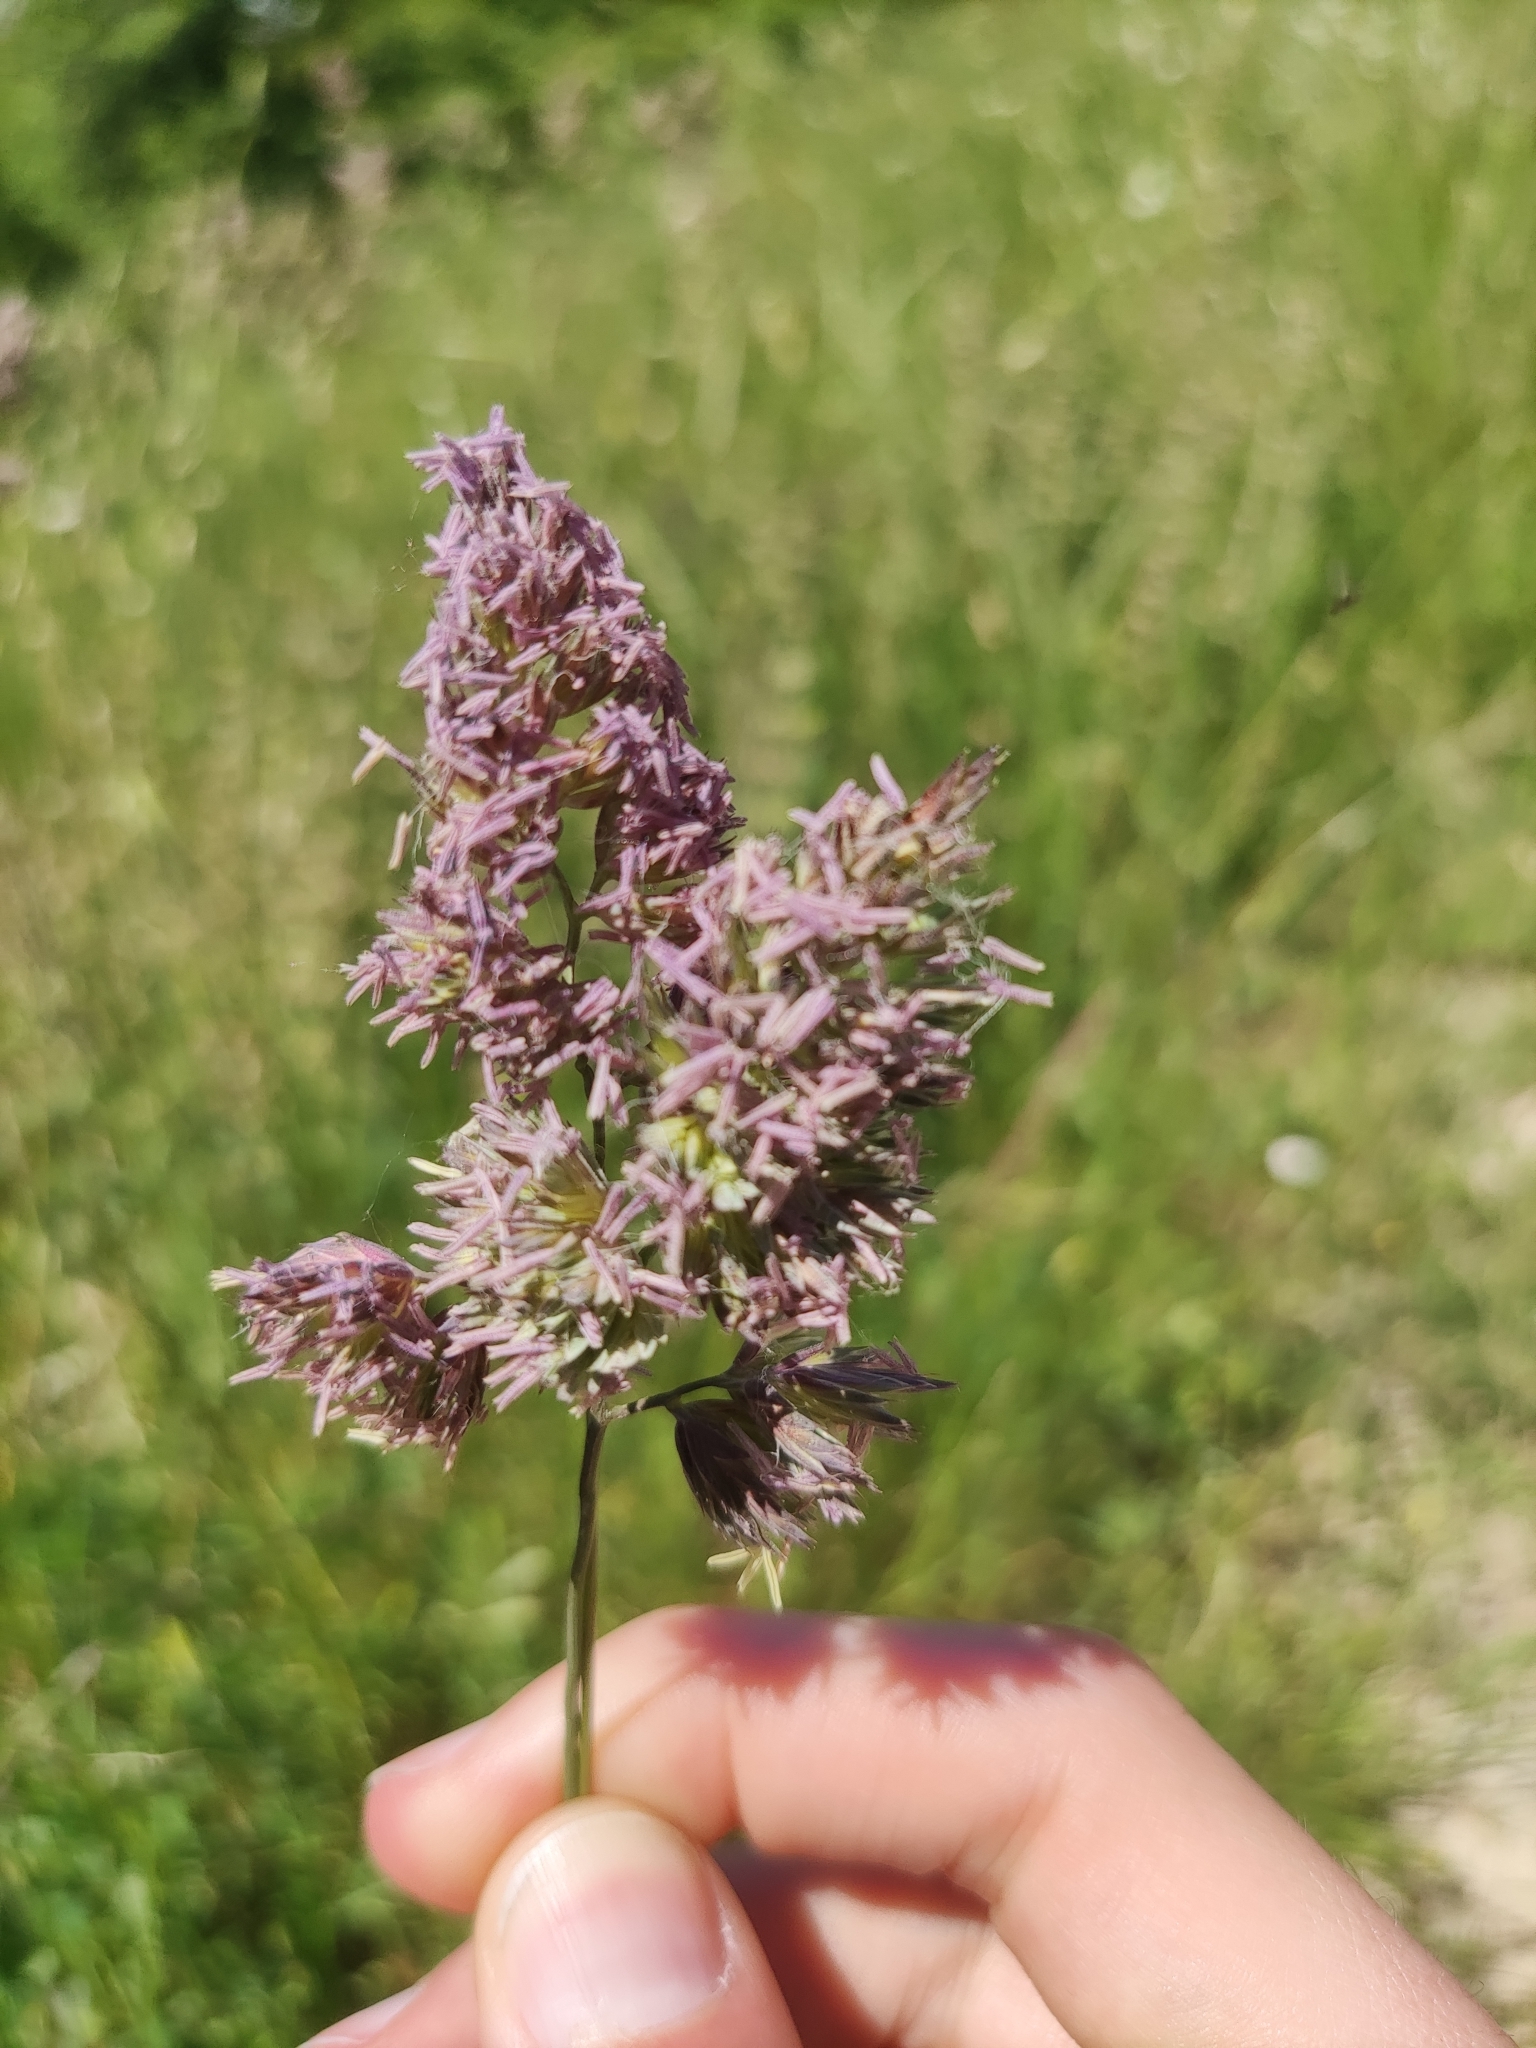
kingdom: Plantae
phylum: Tracheophyta
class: Liliopsida
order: Poales
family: Poaceae
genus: Dactylis
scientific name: Dactylis glomerata
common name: Orchardgrass
